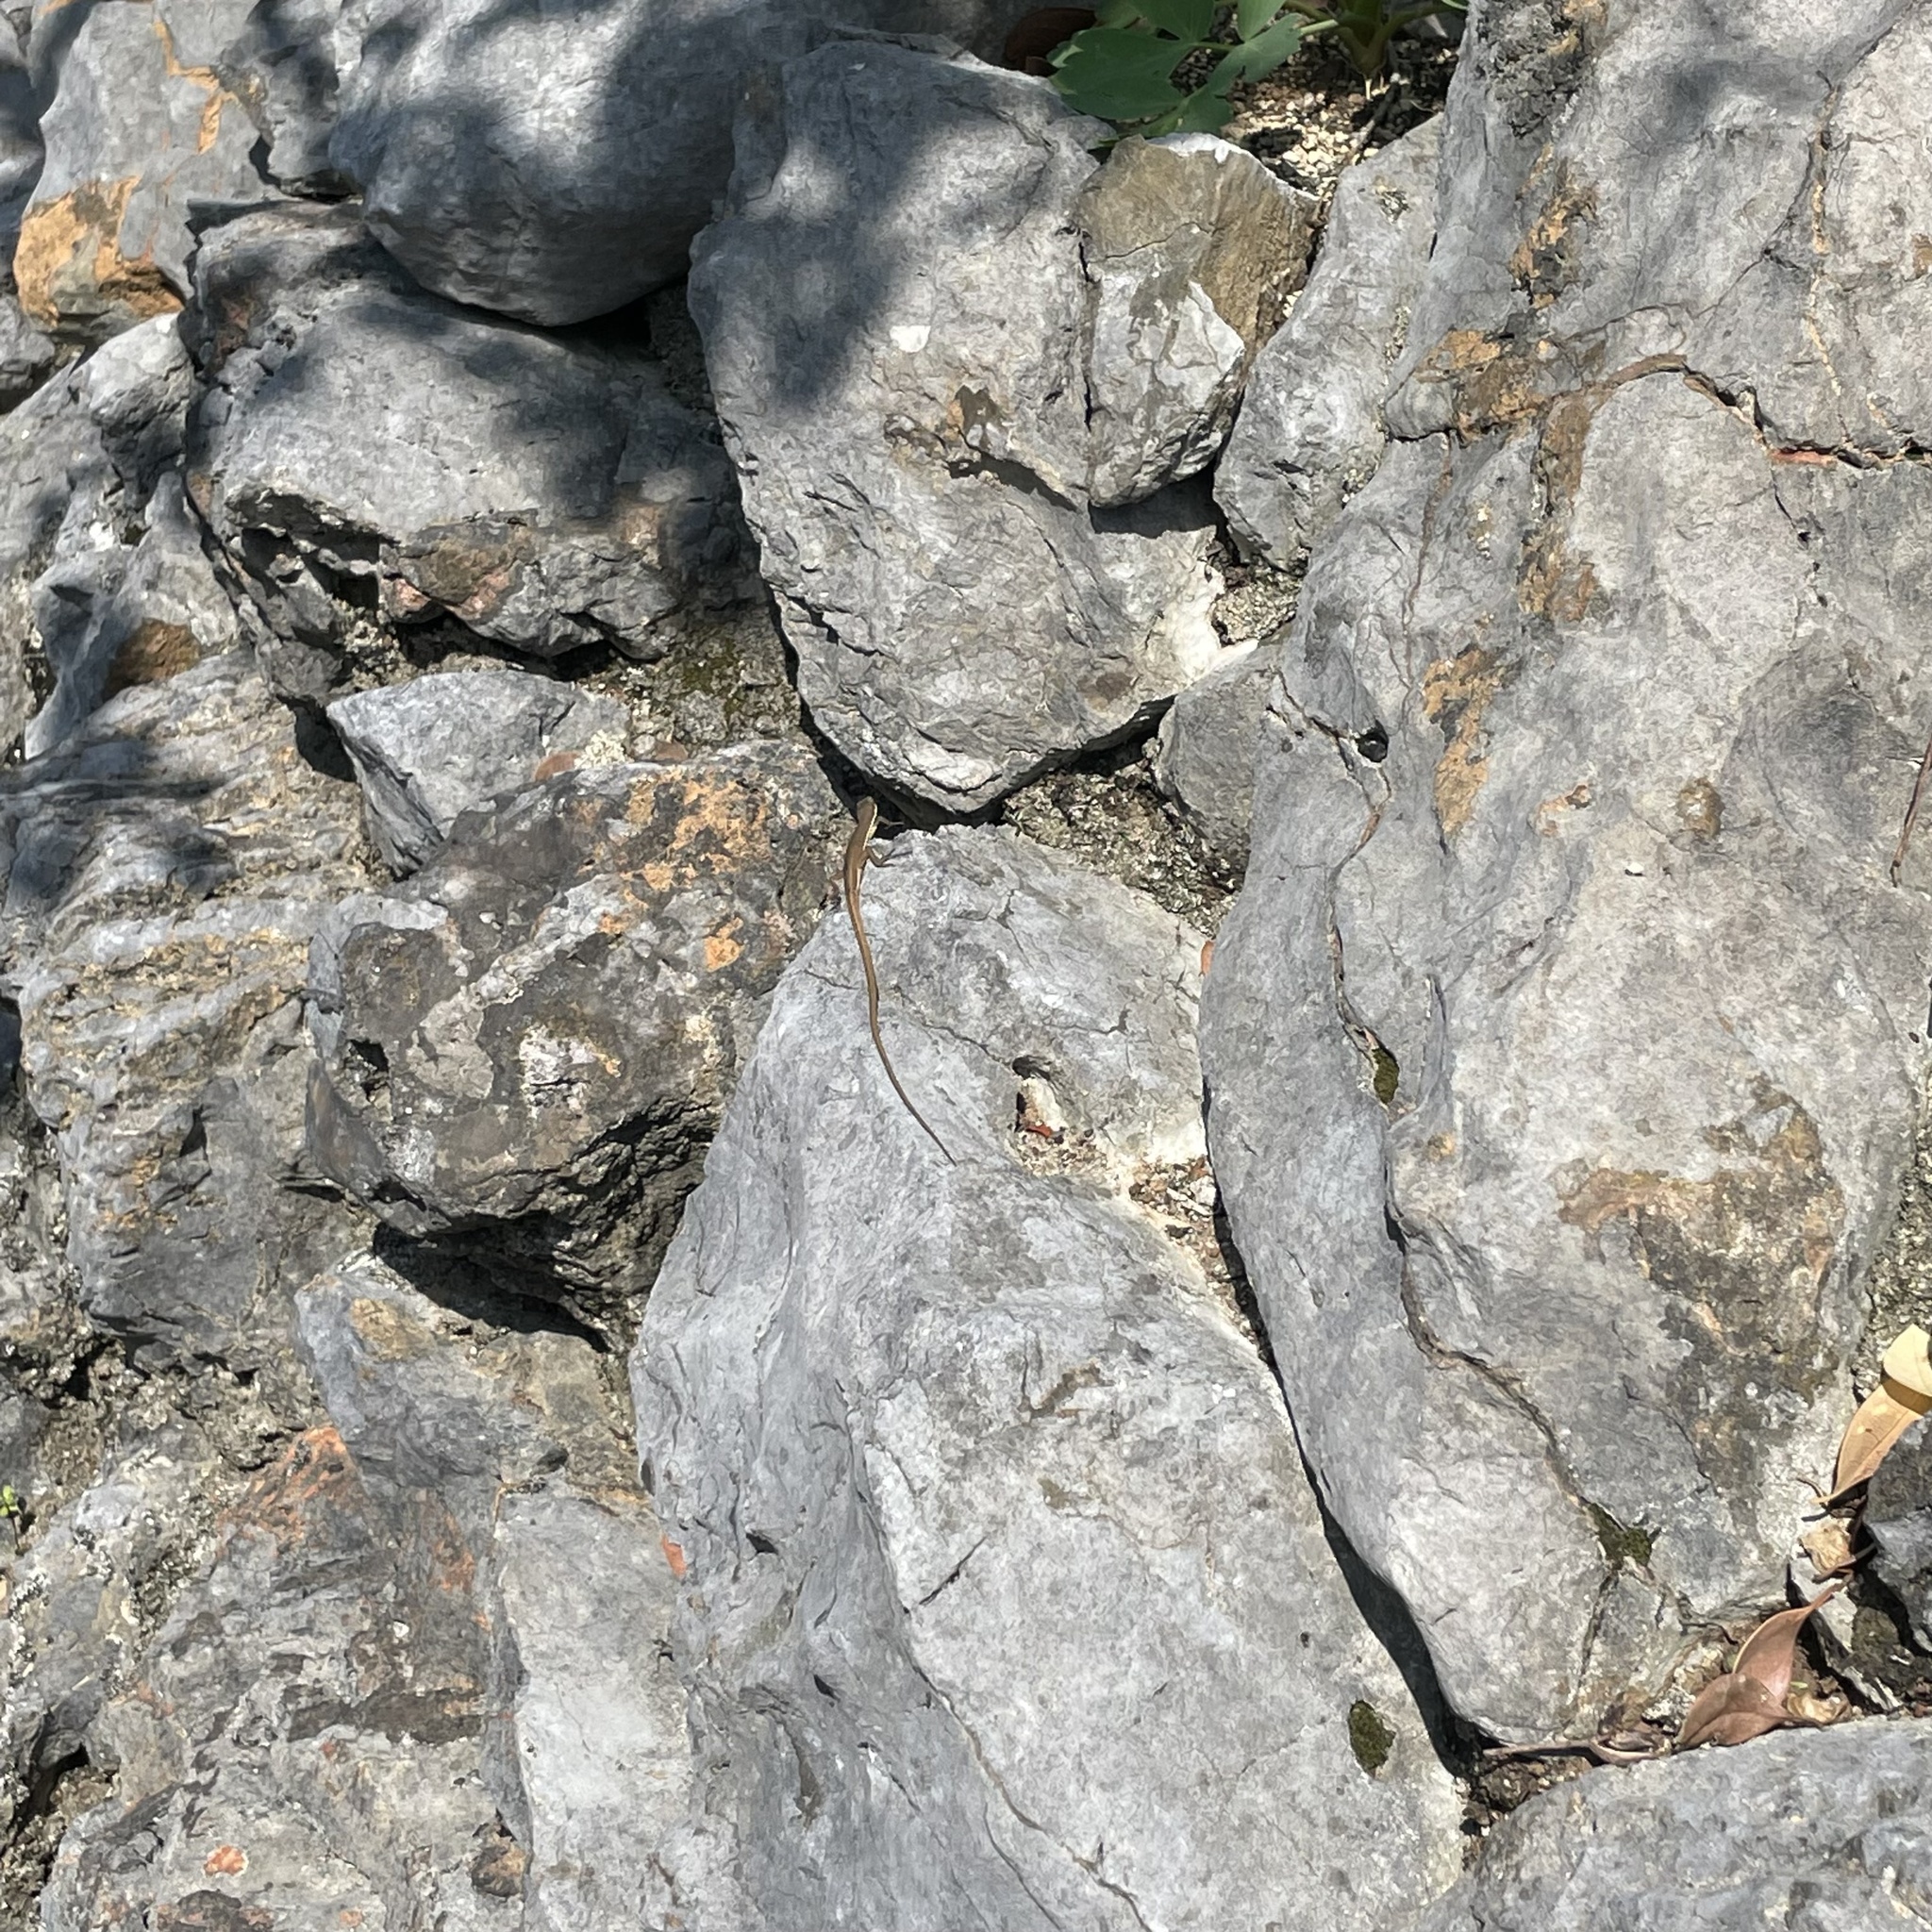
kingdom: Animalia
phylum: Chordata
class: Squamata
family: Lacertidae
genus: Takydromus
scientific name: Takydromus smaragdinus
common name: Green grass lizard
